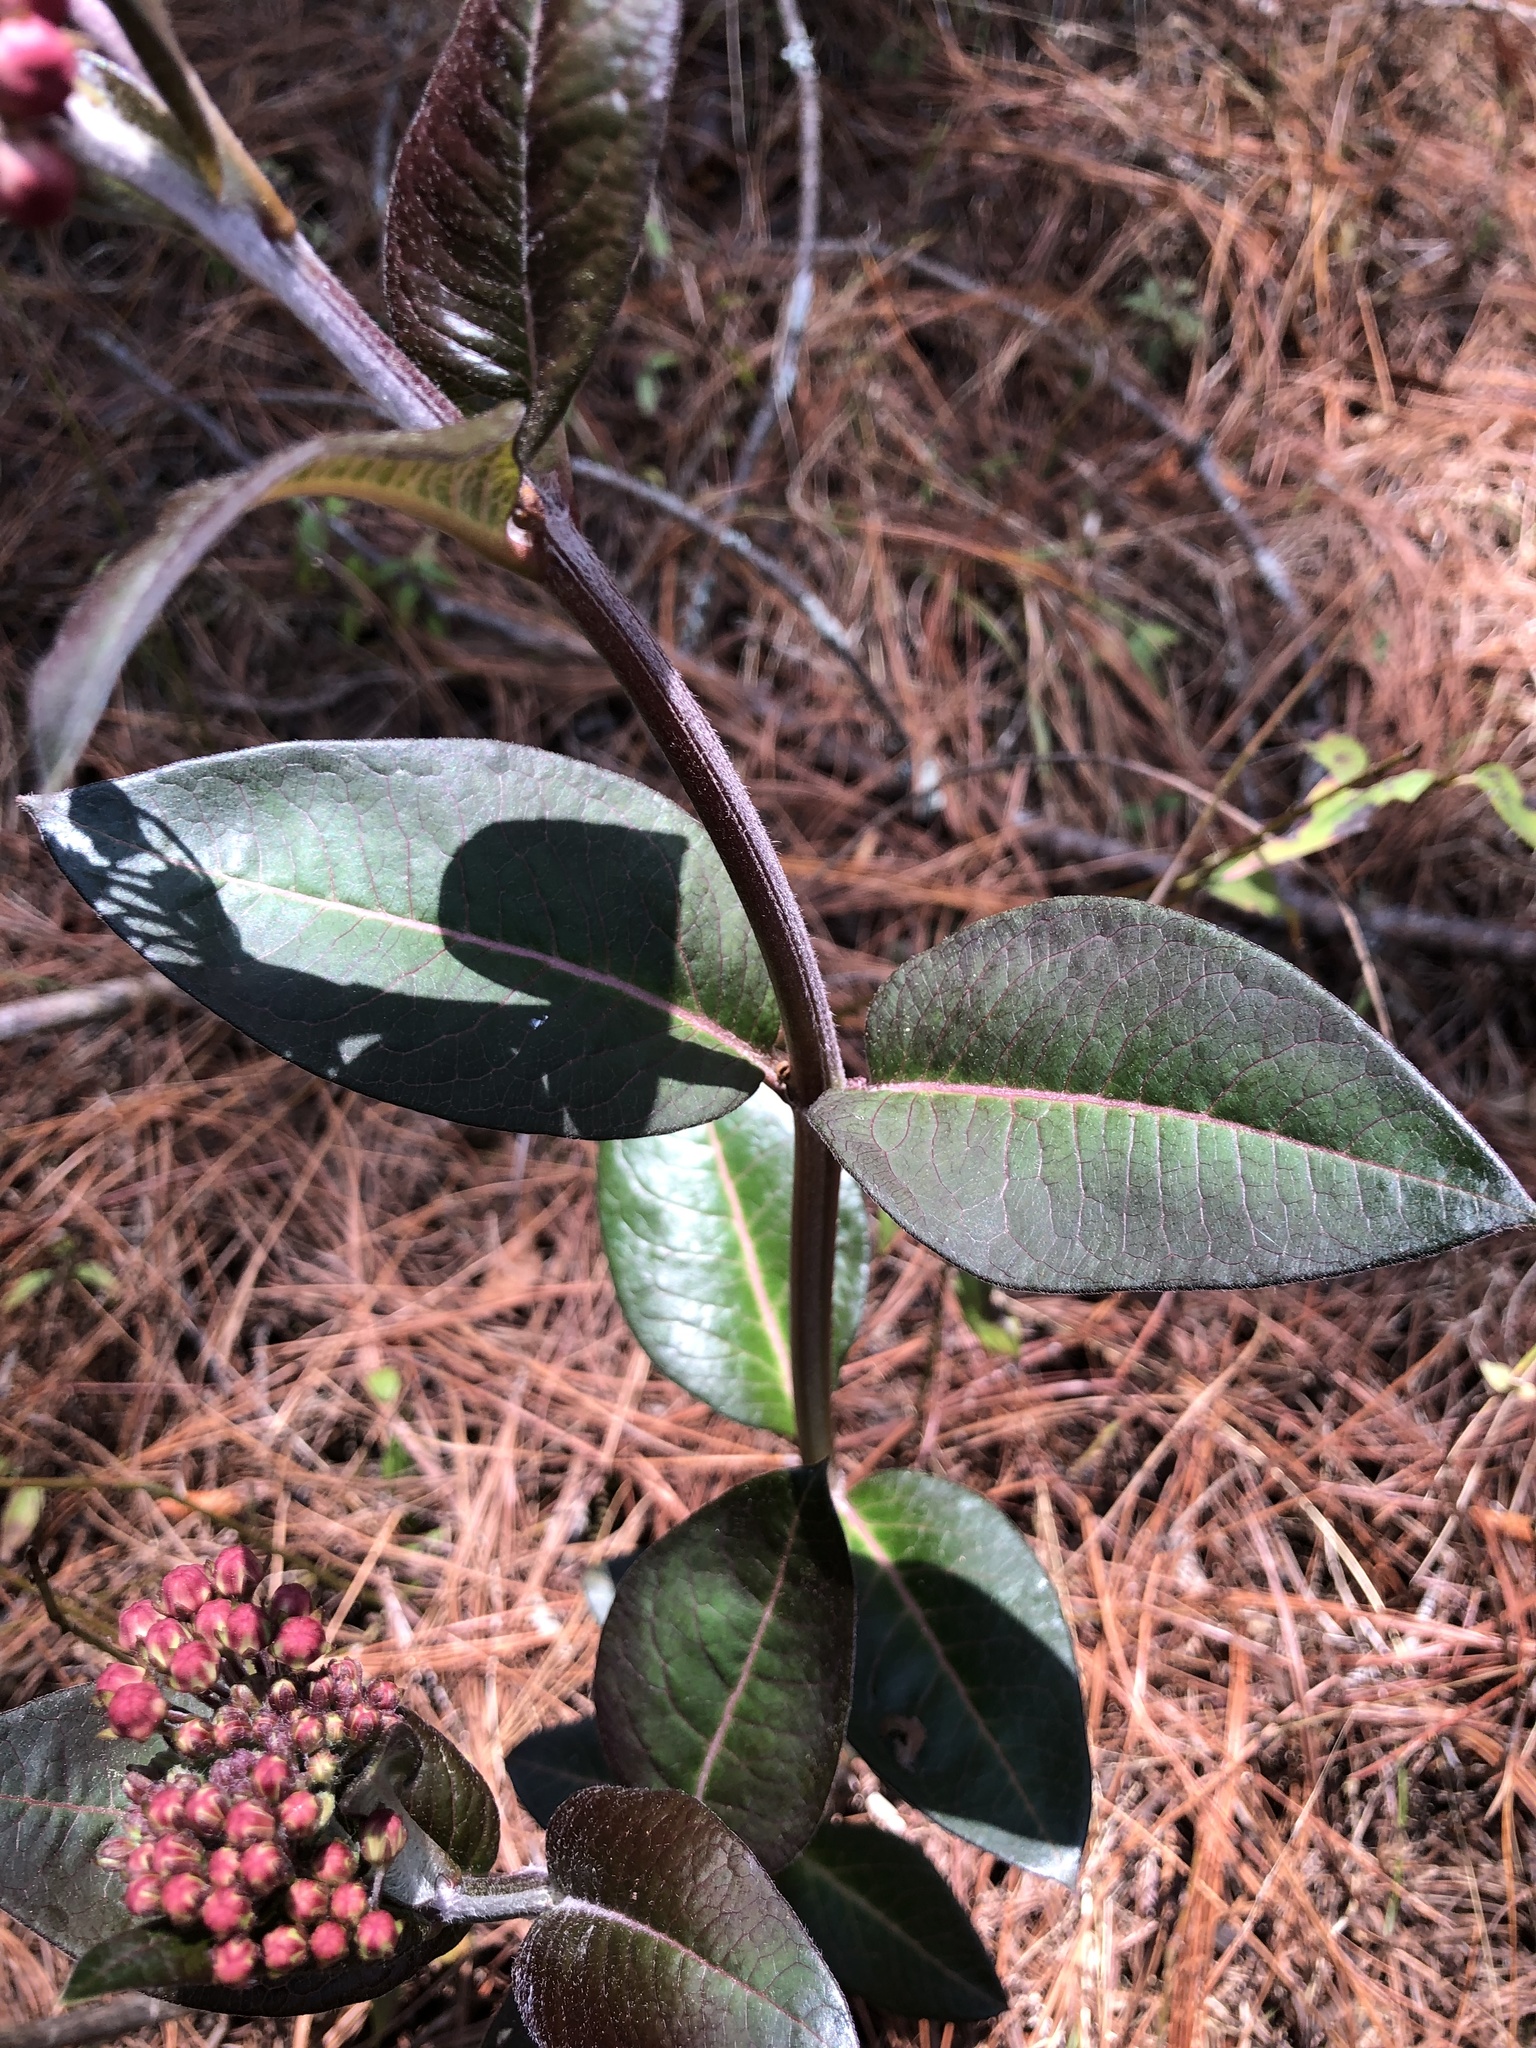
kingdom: Plantae
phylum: Tracheophyta
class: Magnoliopsida
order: Gentianales
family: Apocynaceae
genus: Asclepias
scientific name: Asclepias pellucida
